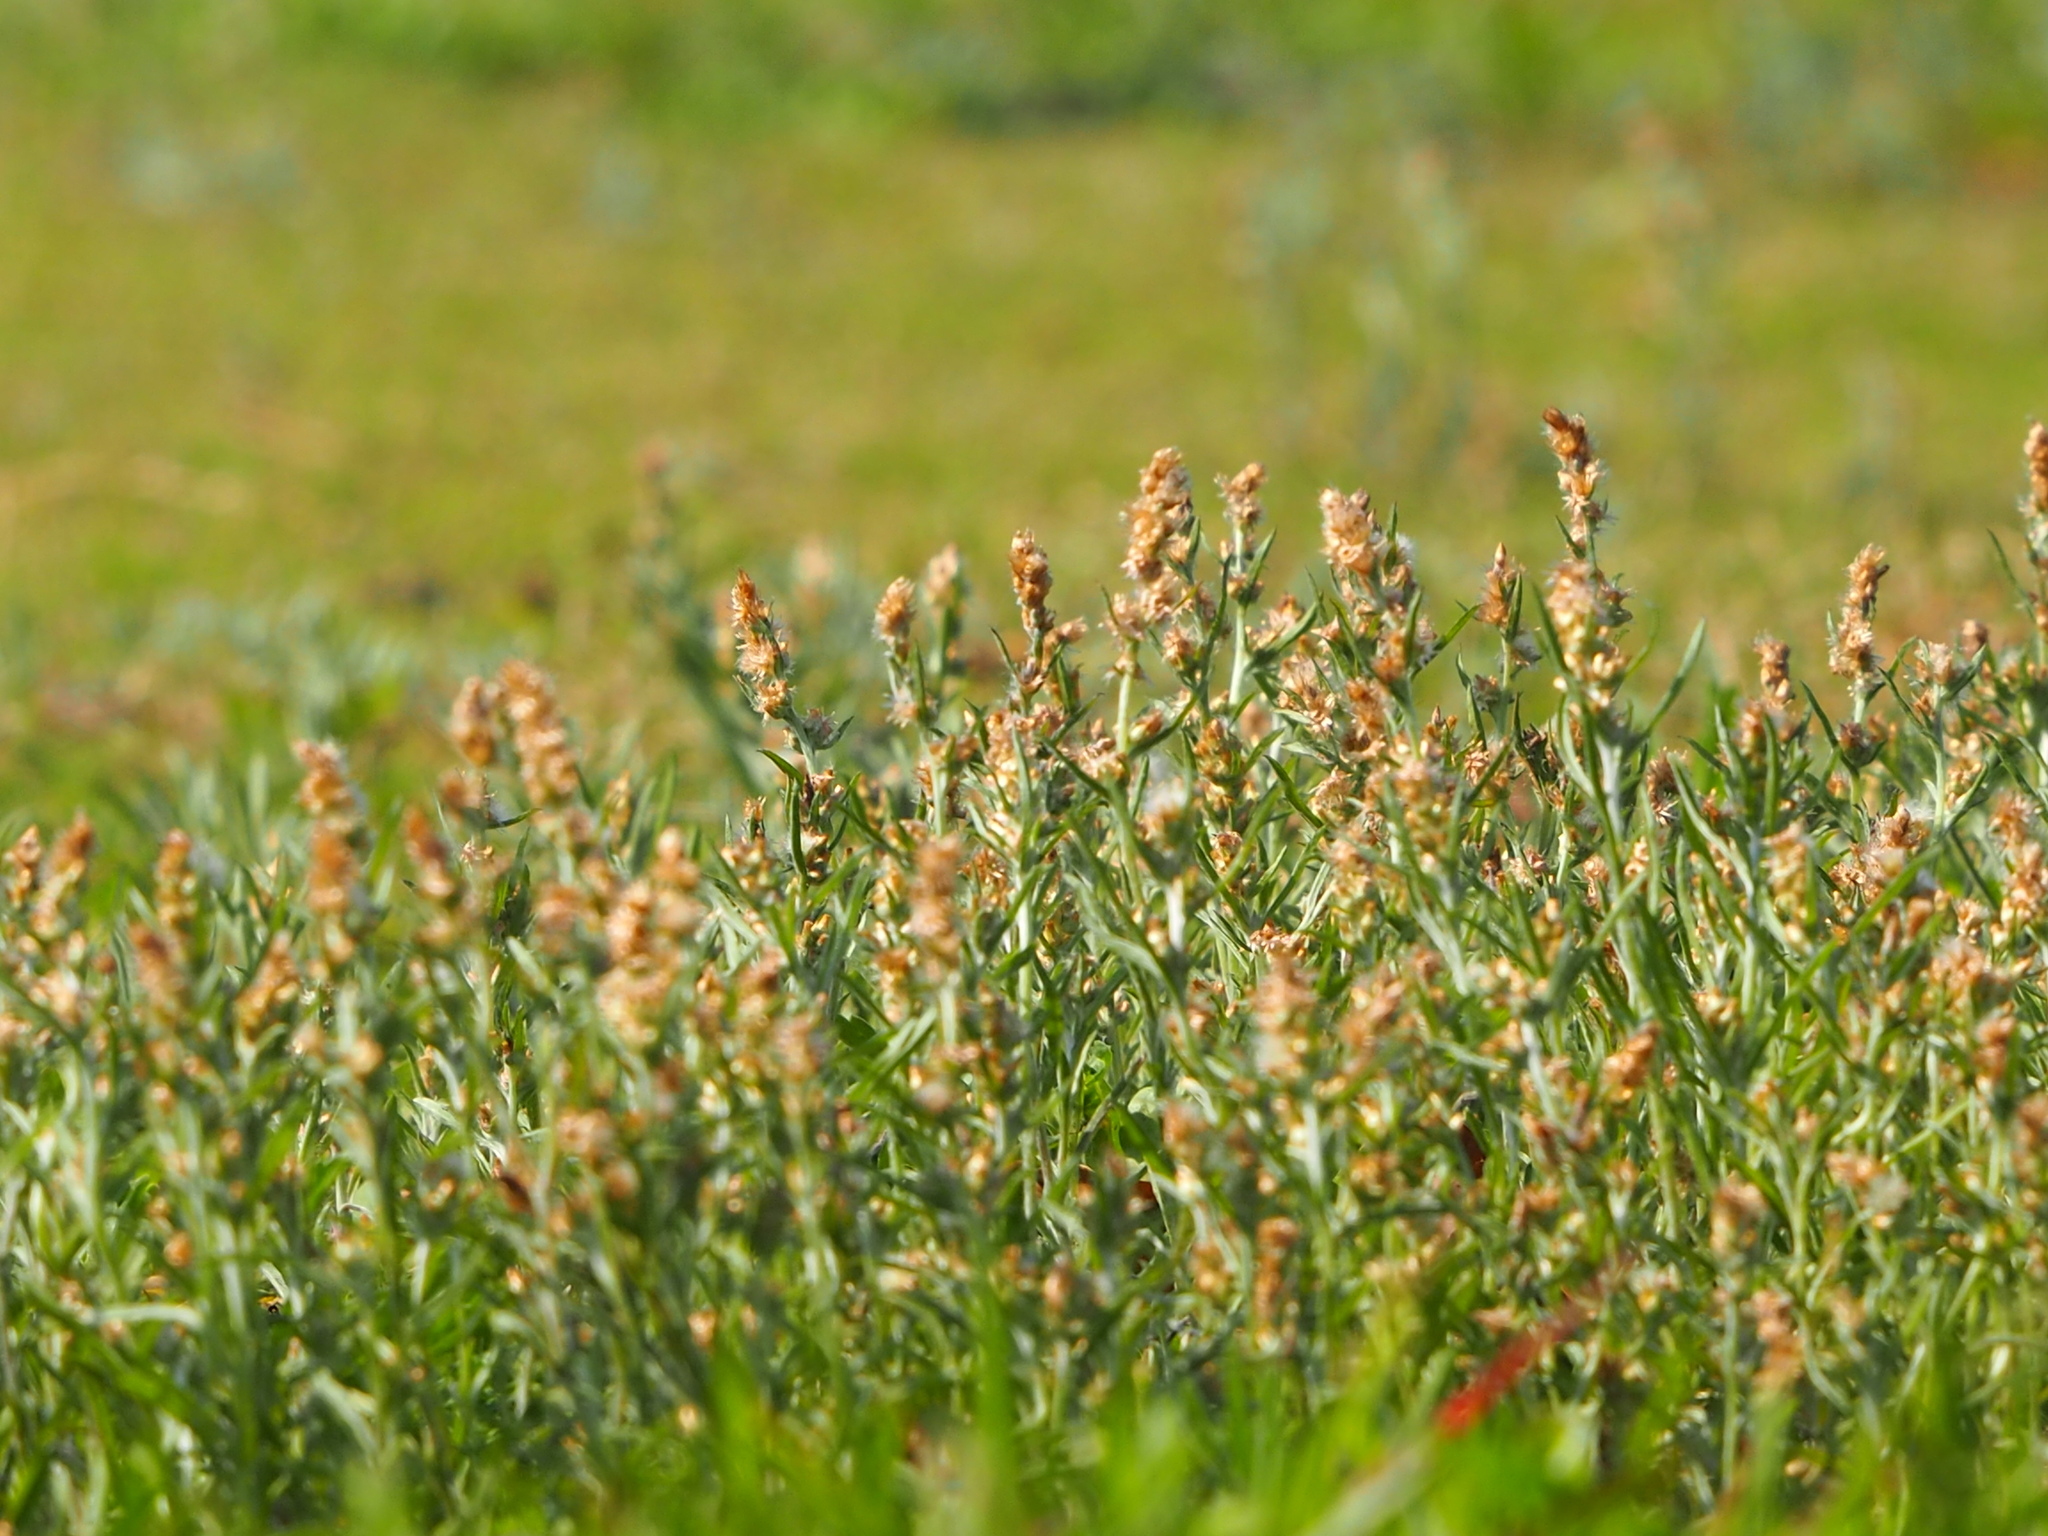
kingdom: Plantae
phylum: Tracheophyta
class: Magnoliopsida
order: Asterales
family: Asteraceae
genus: Gamochaeta
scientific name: Gamochaeta purpurea
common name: Purple cudweed
